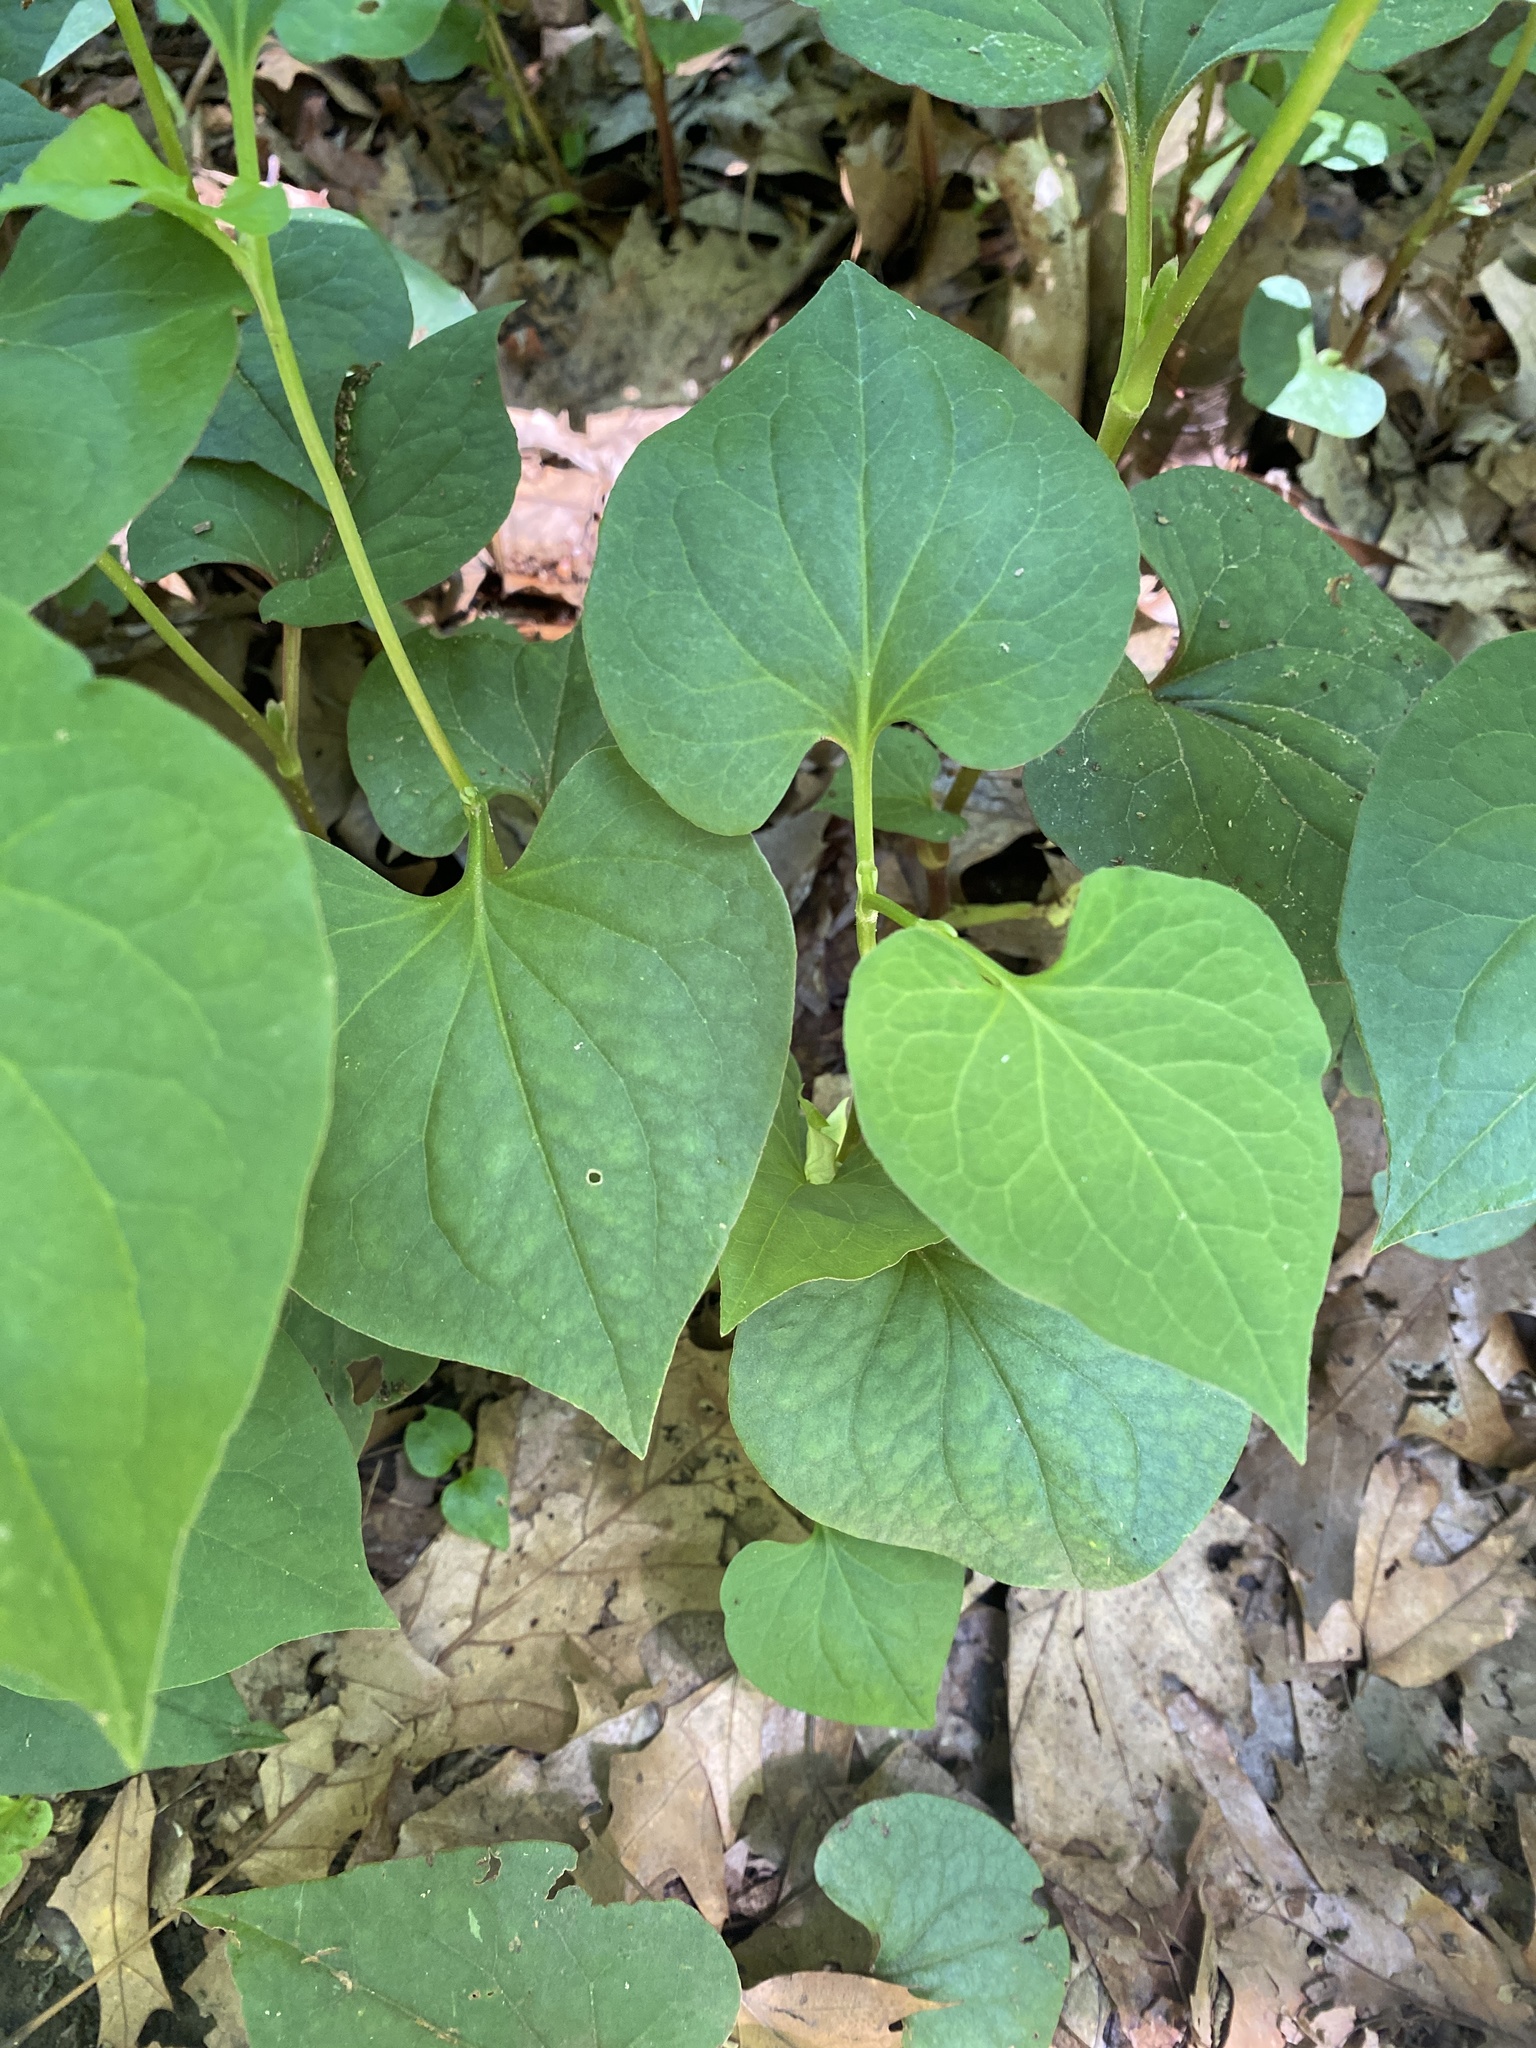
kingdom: Plantae
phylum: Tracheophyta
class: Magnoliopsida
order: Piperales
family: Saururaceae
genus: Houttuynia
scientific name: Houttuynia cordata
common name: Chameleon
